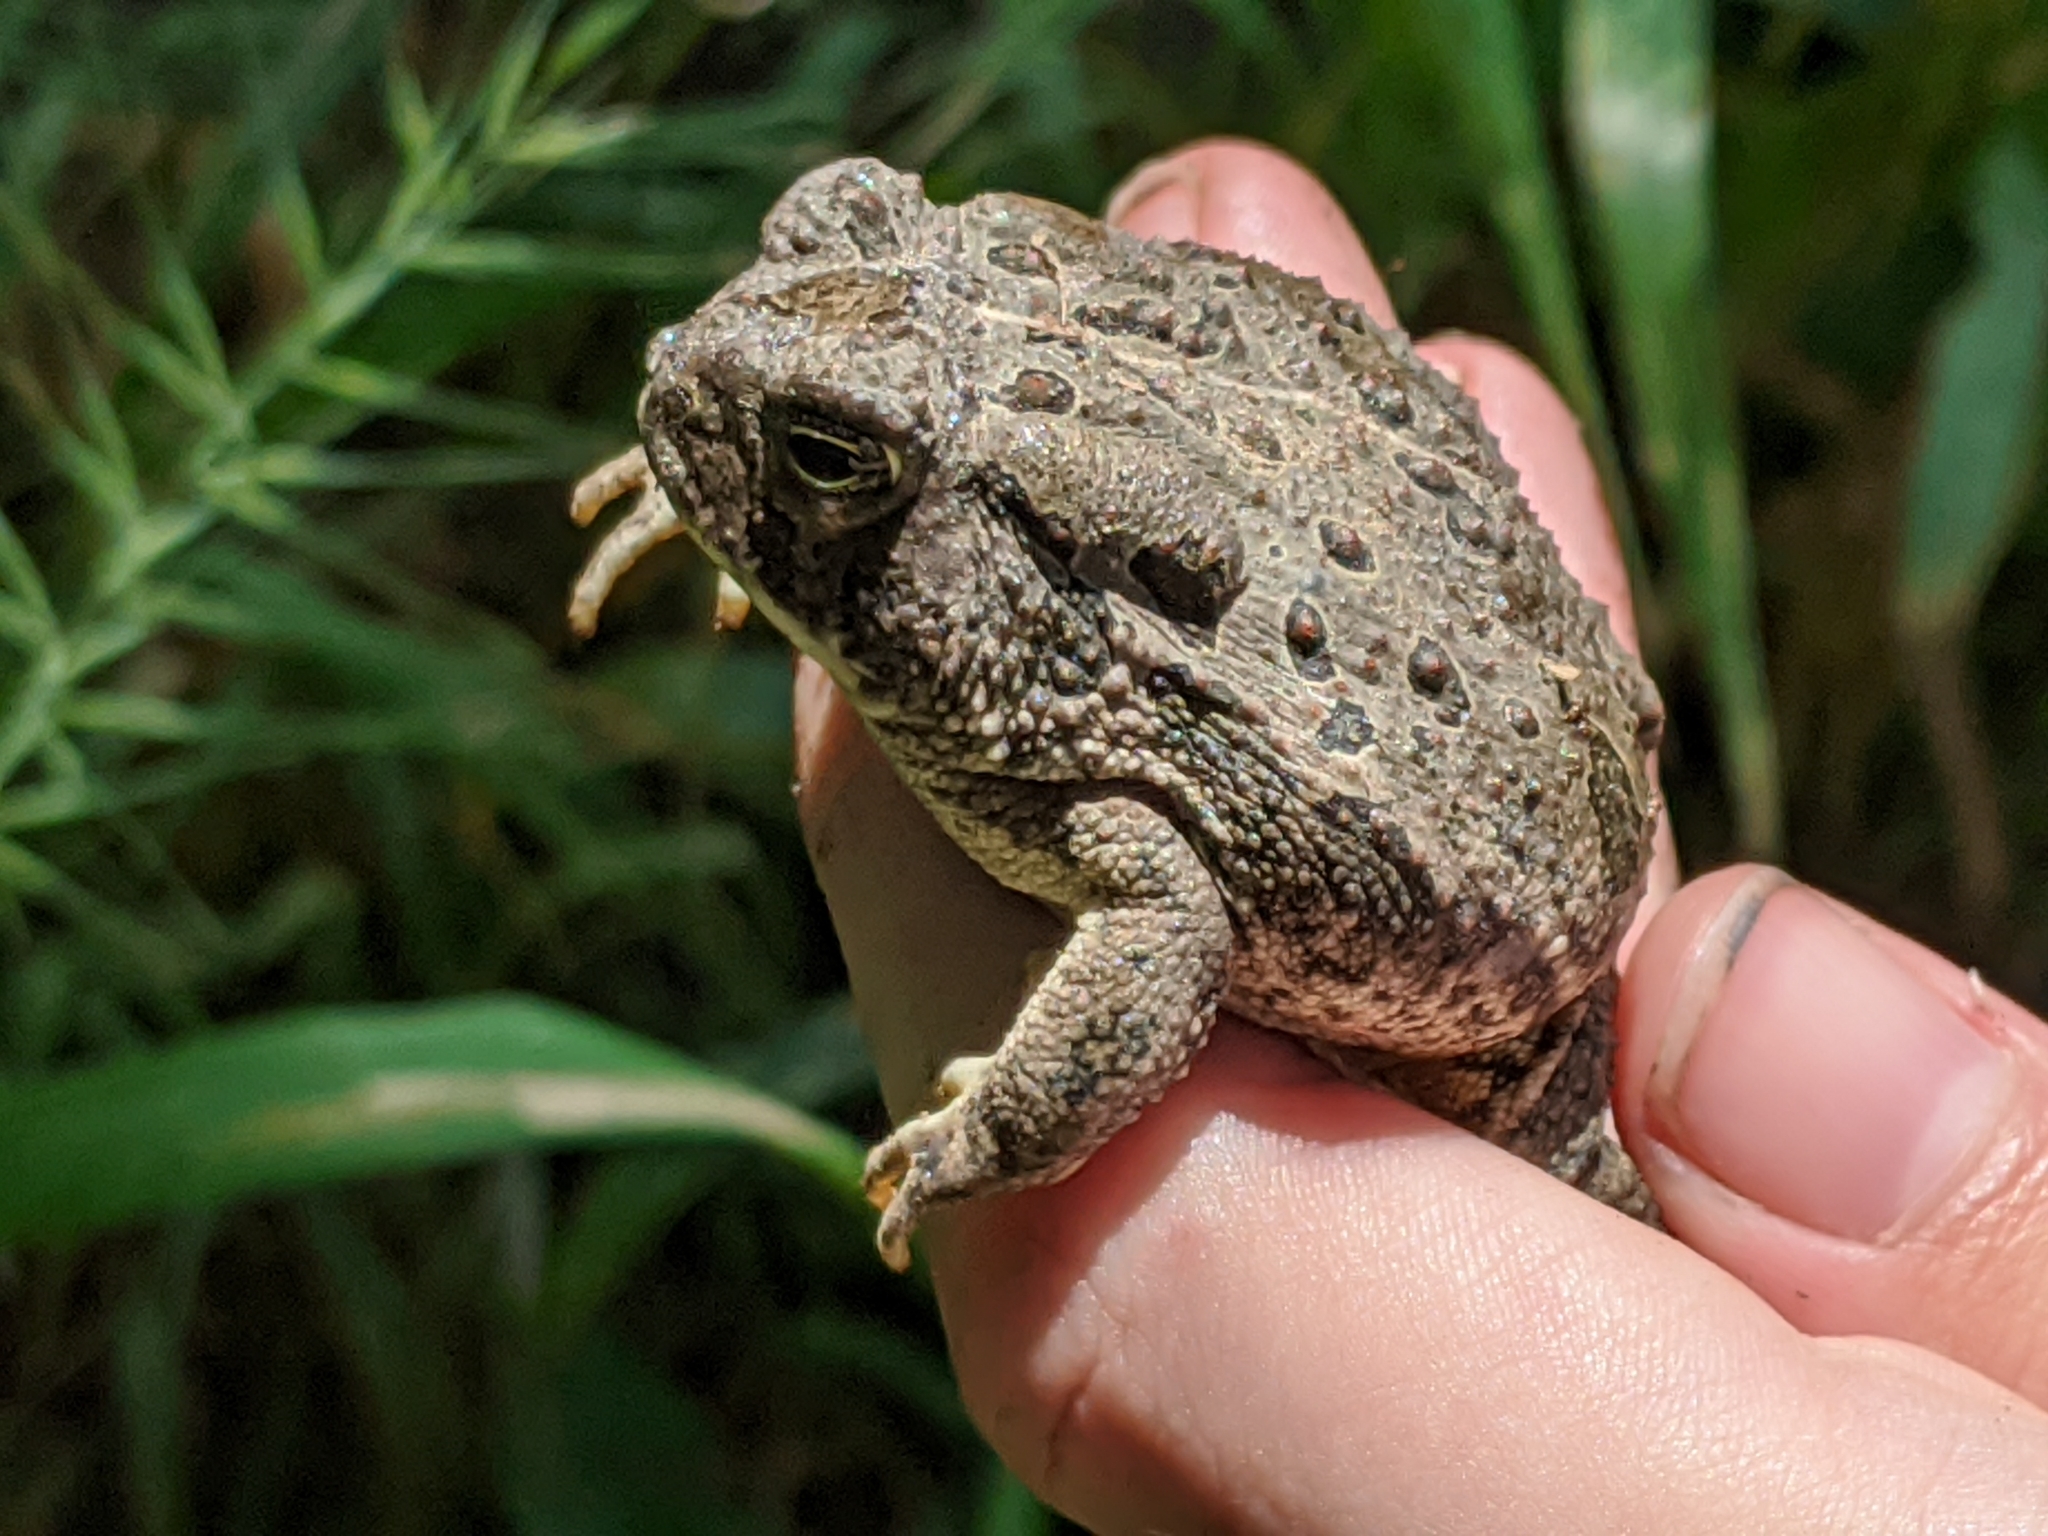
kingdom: Animalia
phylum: Chordata
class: Amphibia
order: Anura
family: Bufonidae
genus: Anaxyrus
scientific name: Anaxyrus woodhousii
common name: Woodhouse's toad
